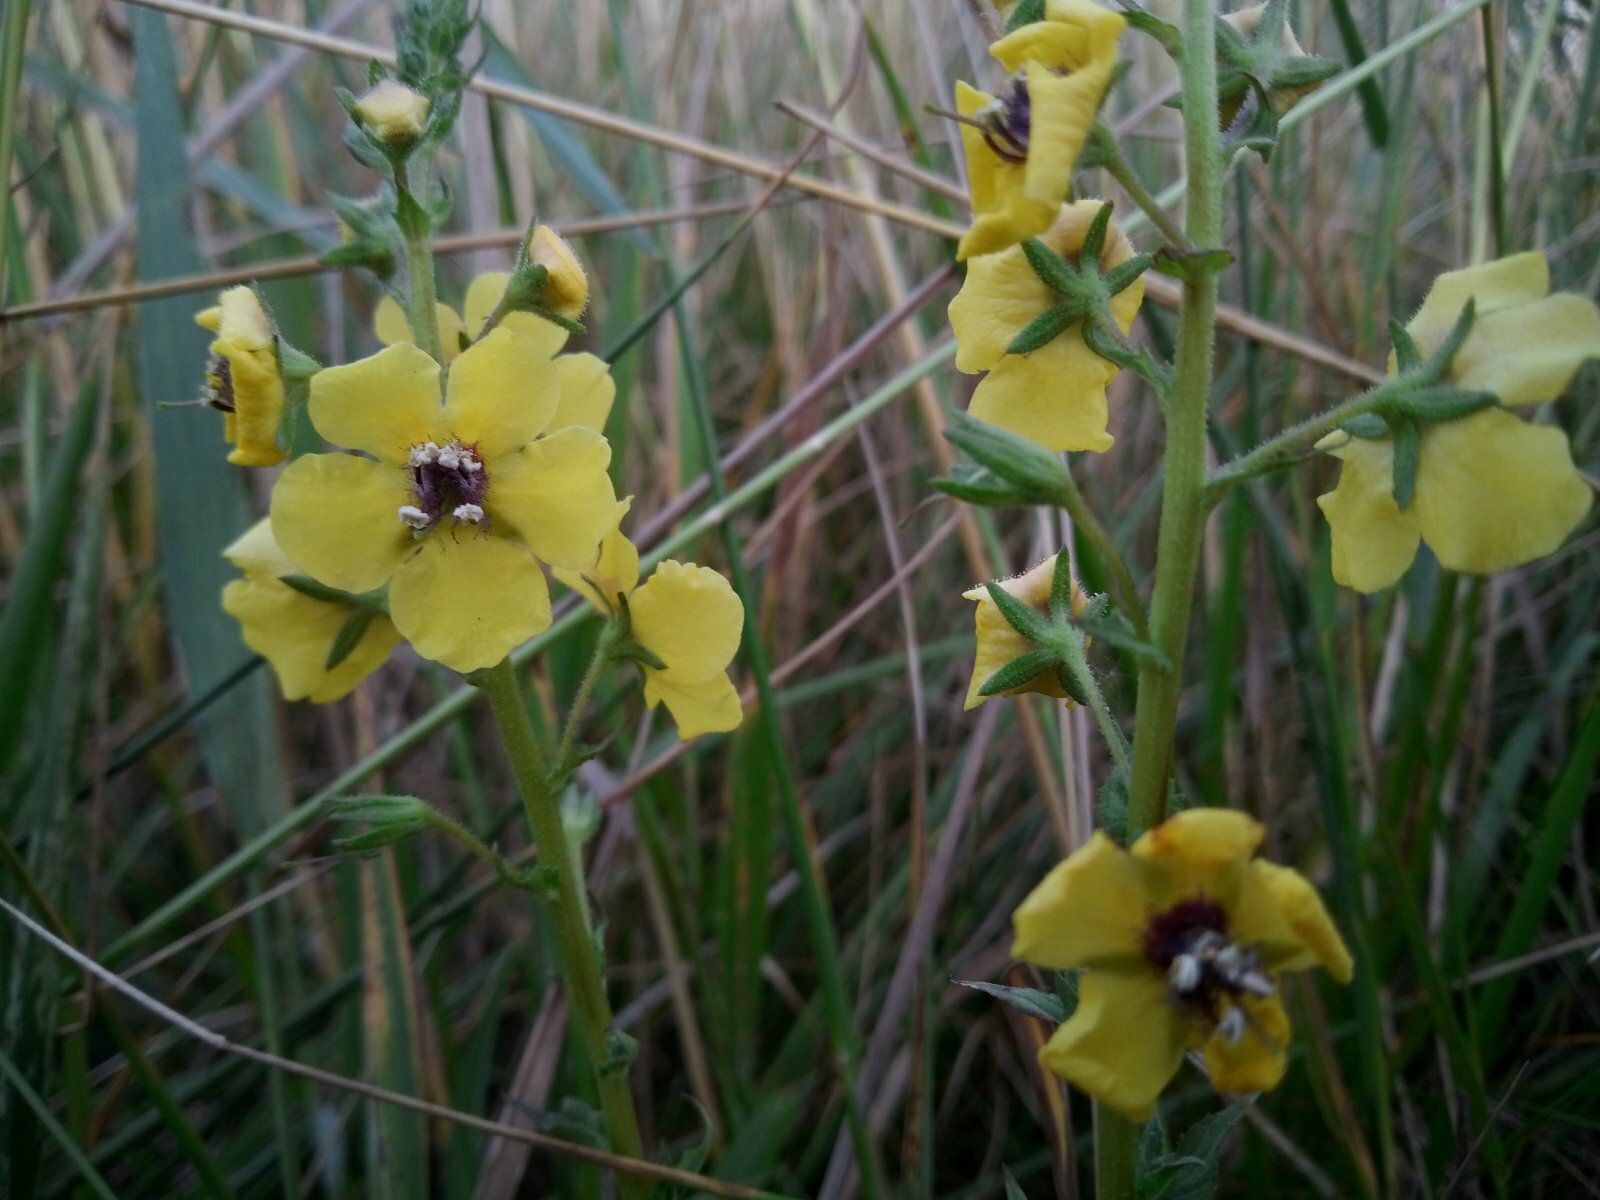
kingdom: Plantae
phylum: Tracheophyta
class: Magnoliopsida
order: Lamiales
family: Scrophulariaceae
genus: Verbascum
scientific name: Verbascum blattaria
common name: Moth mullein
